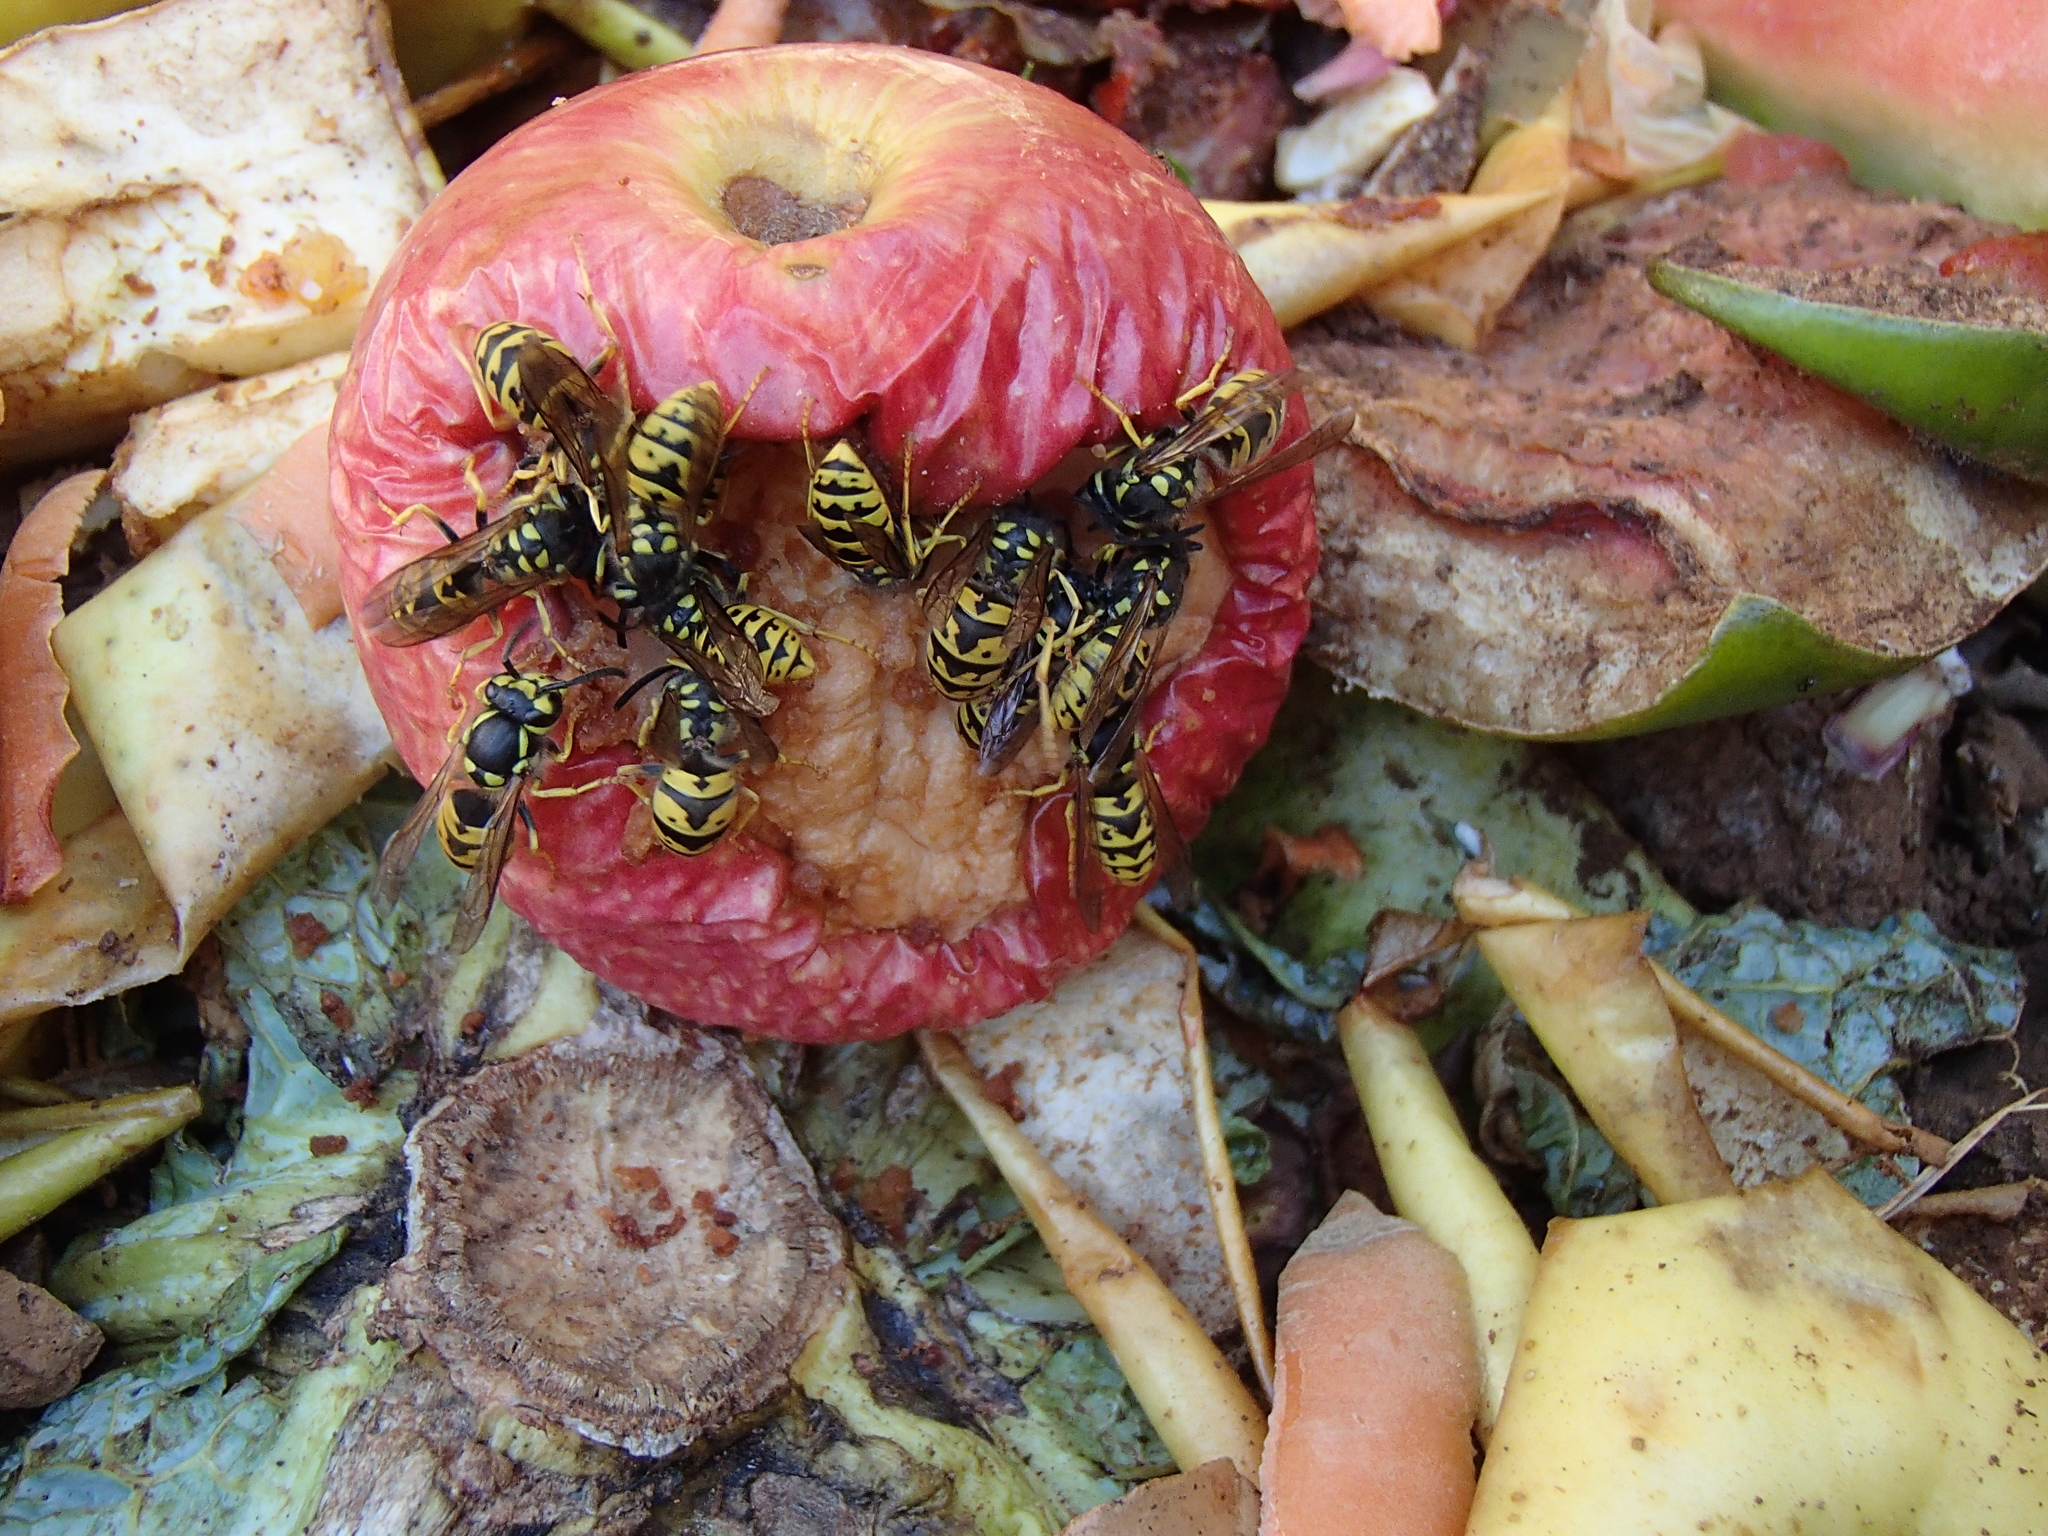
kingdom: Animalia
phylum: Arthropoda
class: Insecta
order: Hymenoptera
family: Vespidae
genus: Vespula
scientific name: Vespula germanica
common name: German wasp
